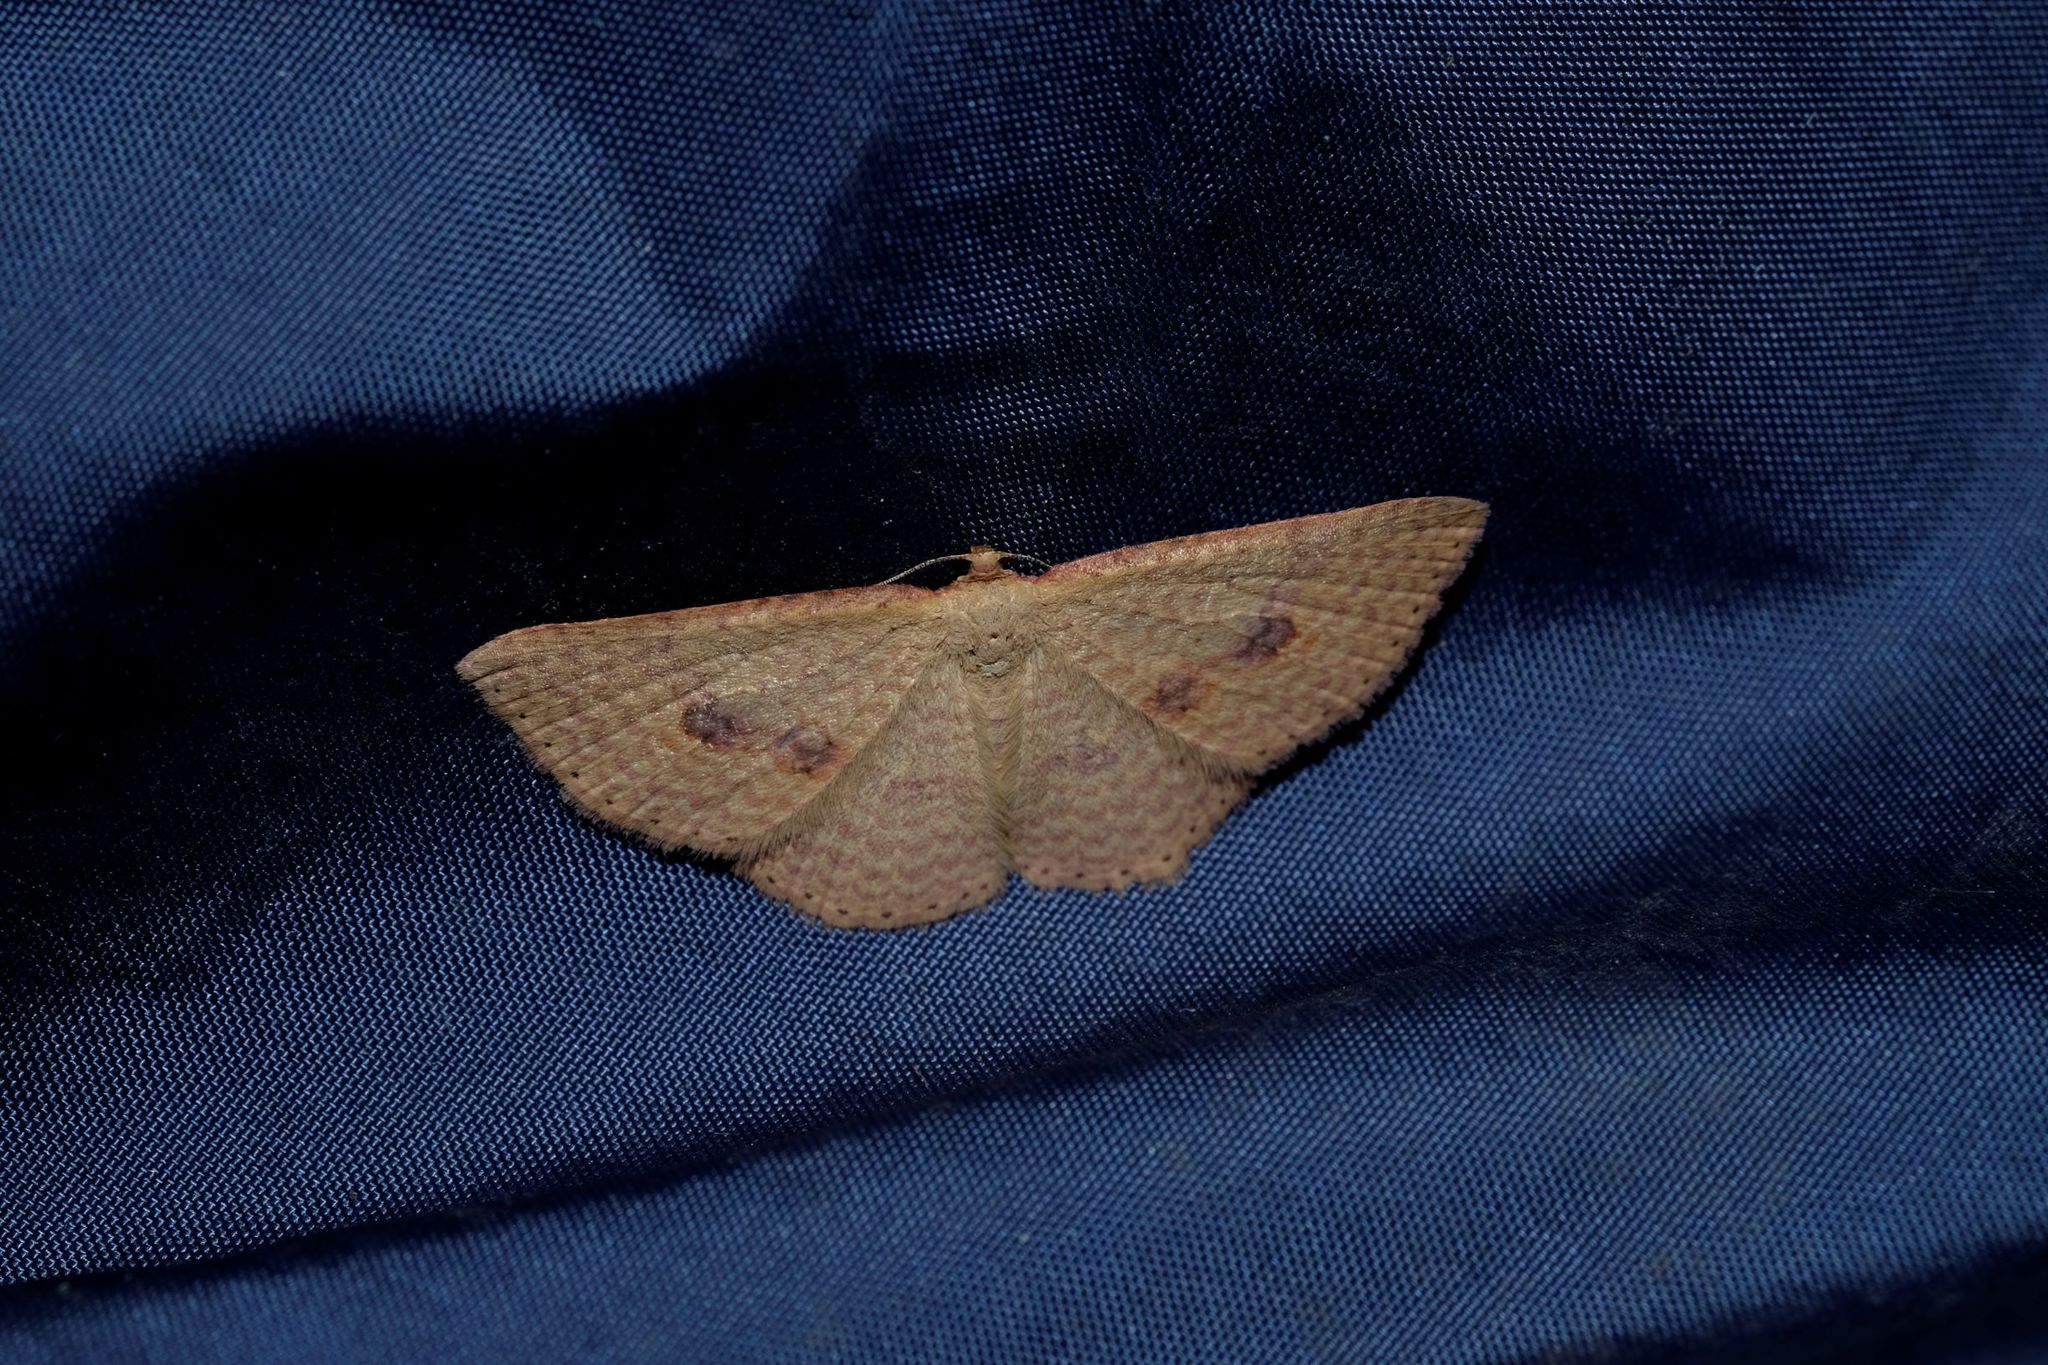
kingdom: Animalia
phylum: Arthropoda
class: Insecta
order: Lepidoptera
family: Geometridae
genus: Epicyme
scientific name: Epicyme rubropunctaria
